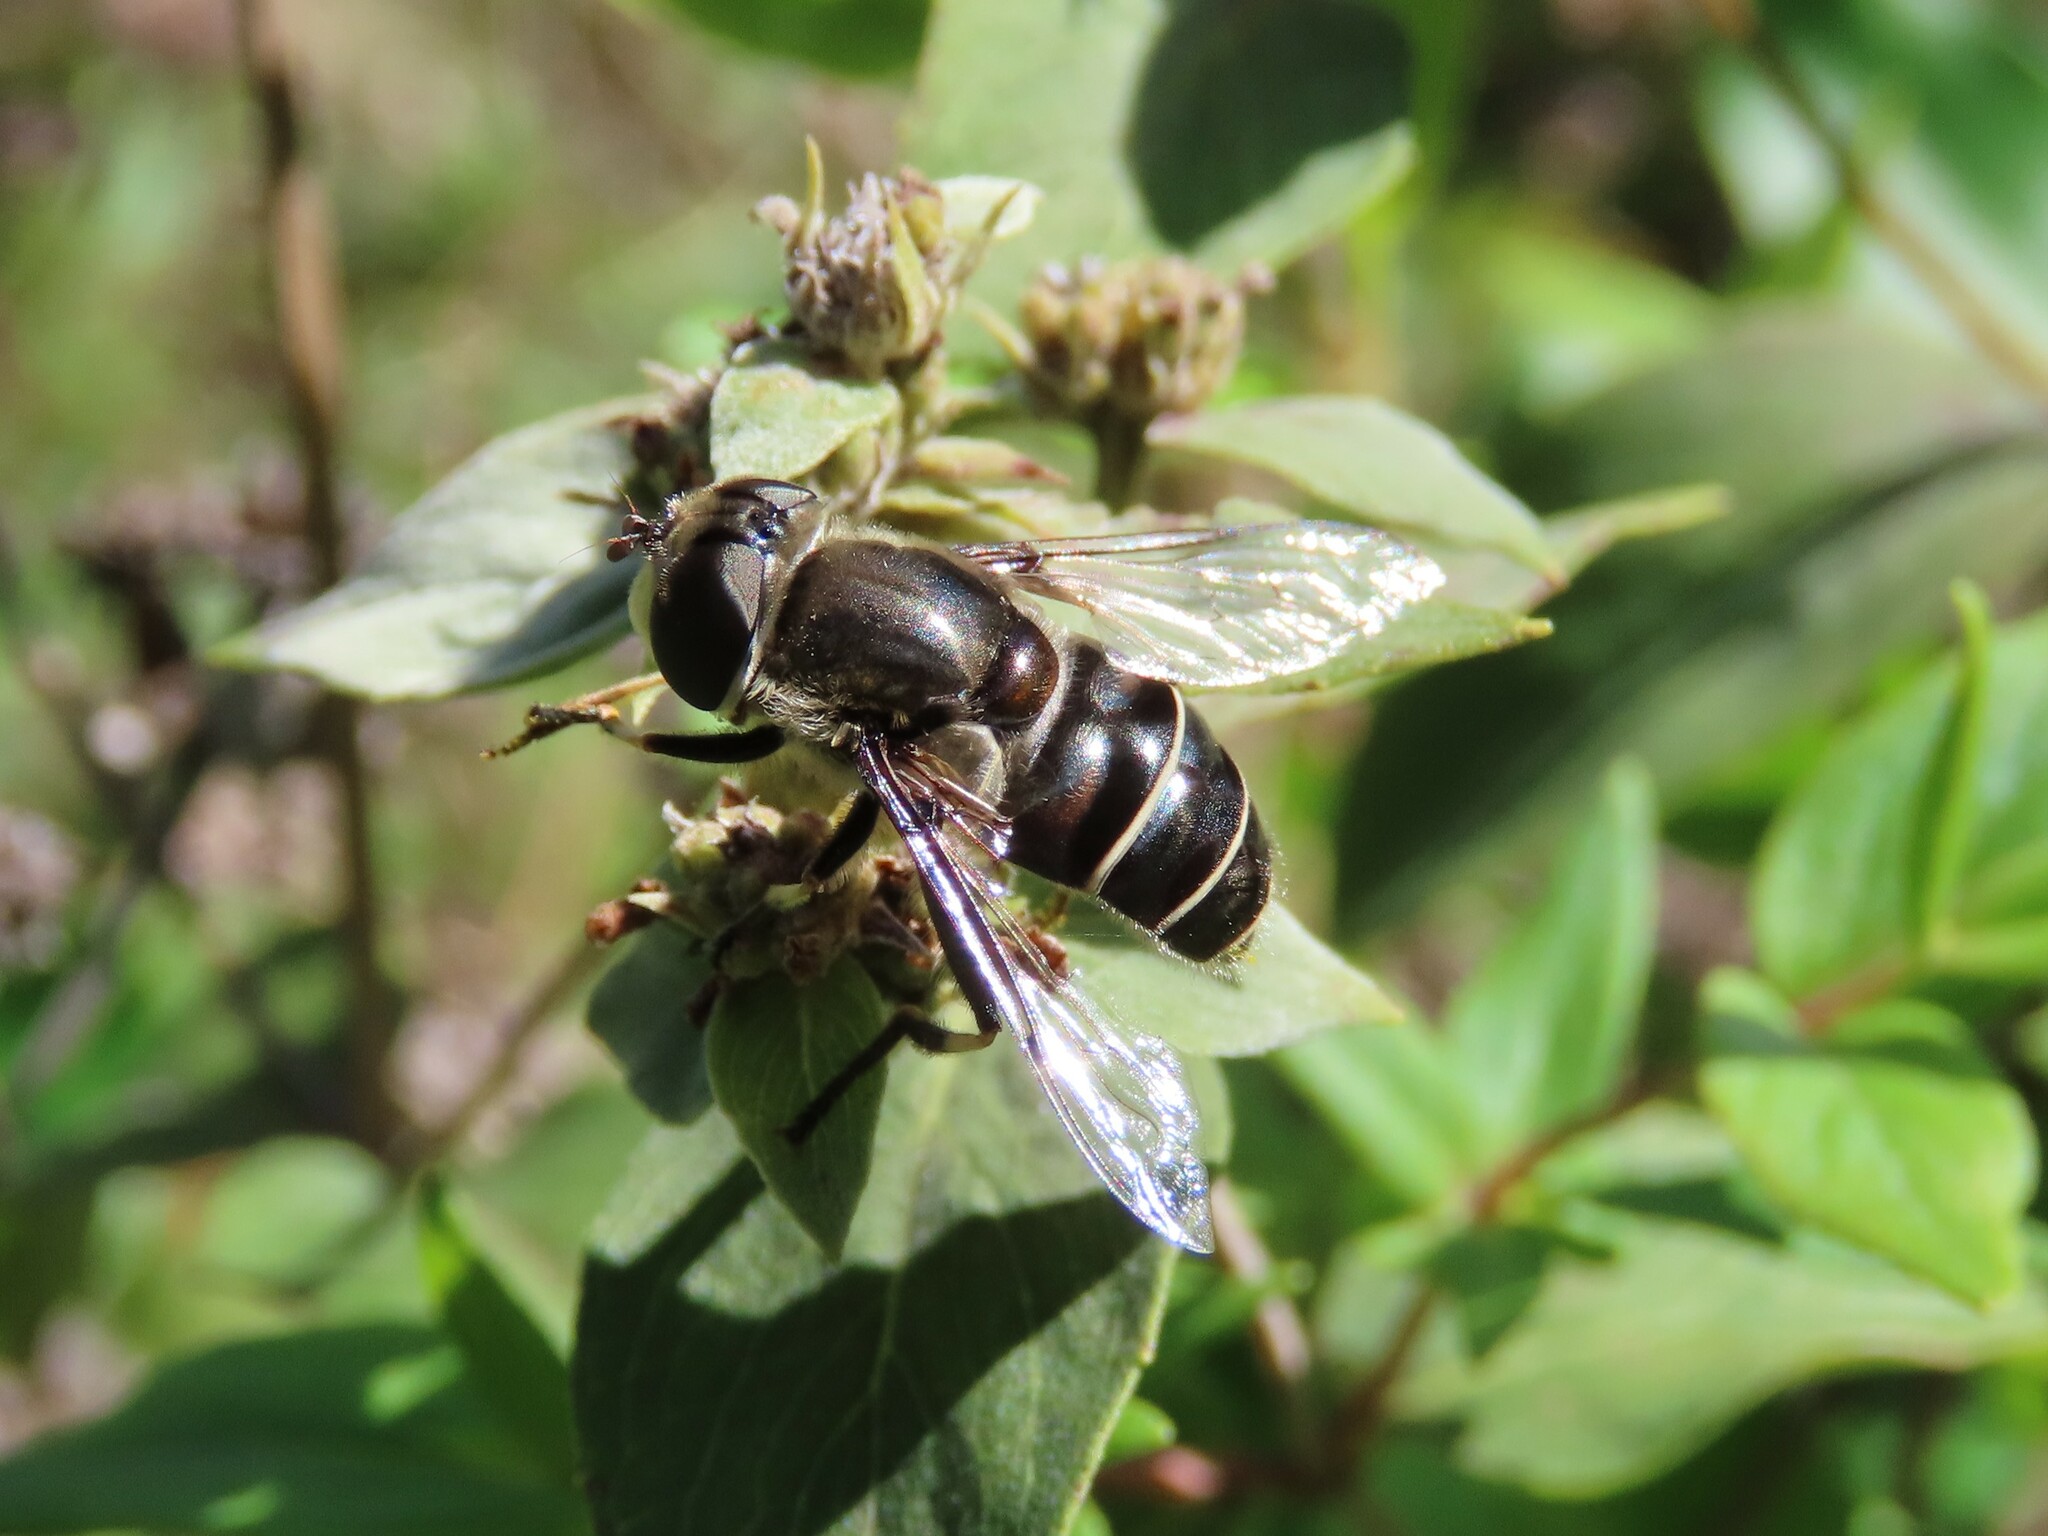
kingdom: Animalia
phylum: Arthropoda
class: Insecta
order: Diptera
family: Syrphidae
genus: Eristalis
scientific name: Eristalis dimidiata
